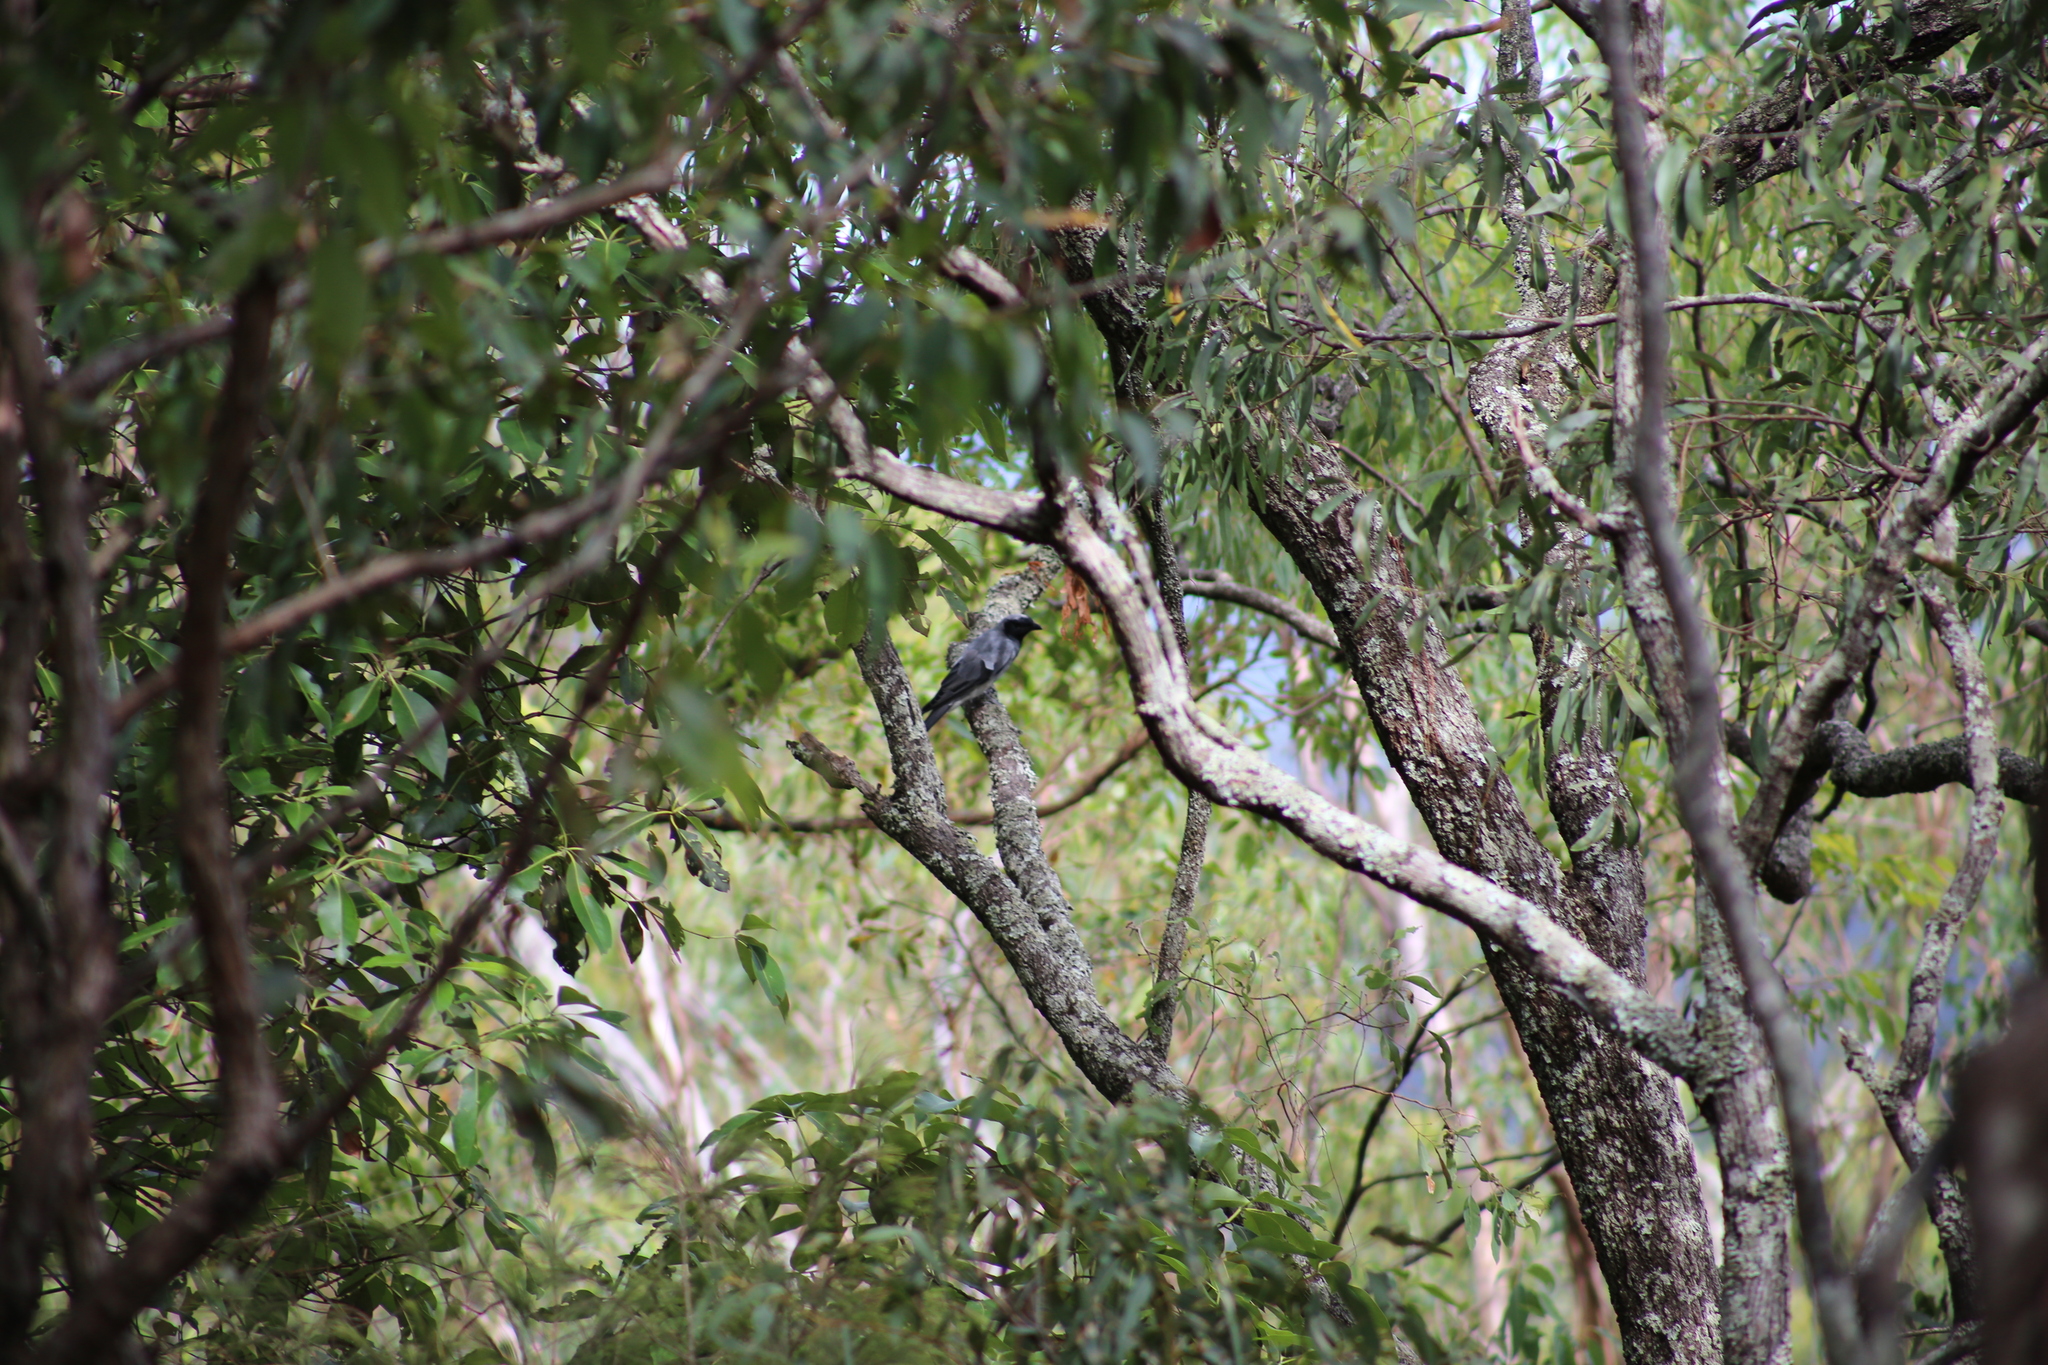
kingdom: Animalia
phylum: Chordata
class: Aves
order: Passeriformes
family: Campephagidae
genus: Coracina
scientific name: Coracina novaehollandiae
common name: Black-faced cuckooshrike
